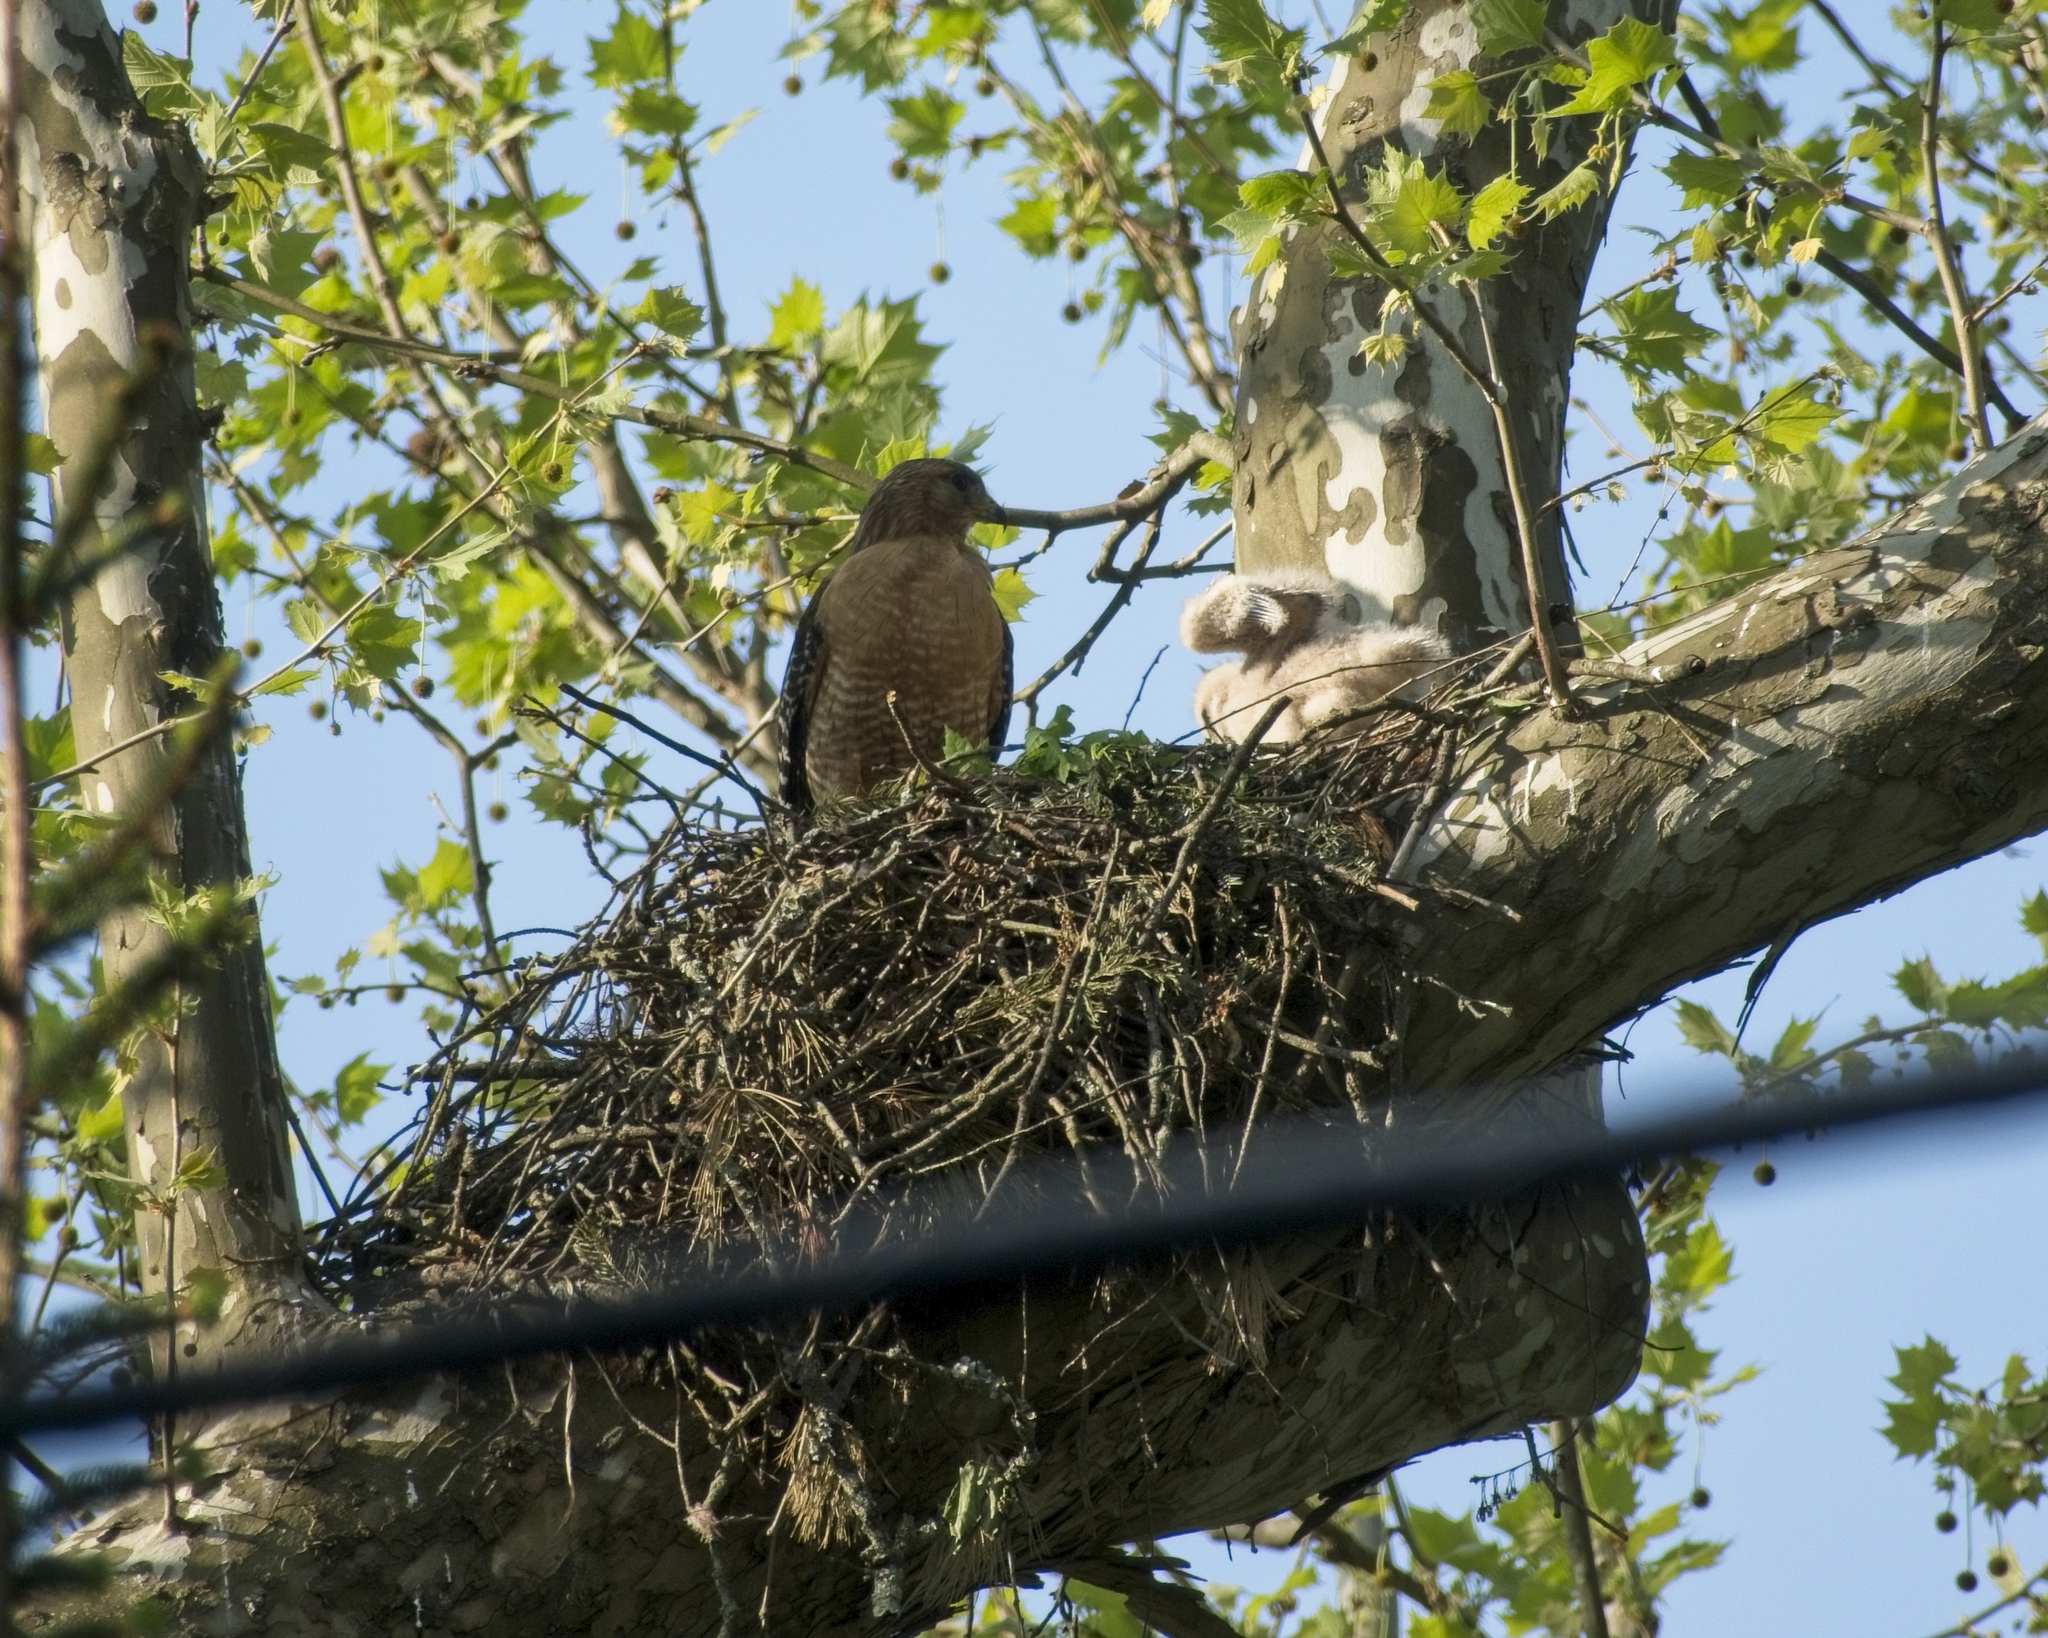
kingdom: Animalia
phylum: Chordata
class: Aves
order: Accipitriformes
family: Accipitridae
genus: Buteo
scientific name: Buteo lineatus
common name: Red-shouldered hawk
